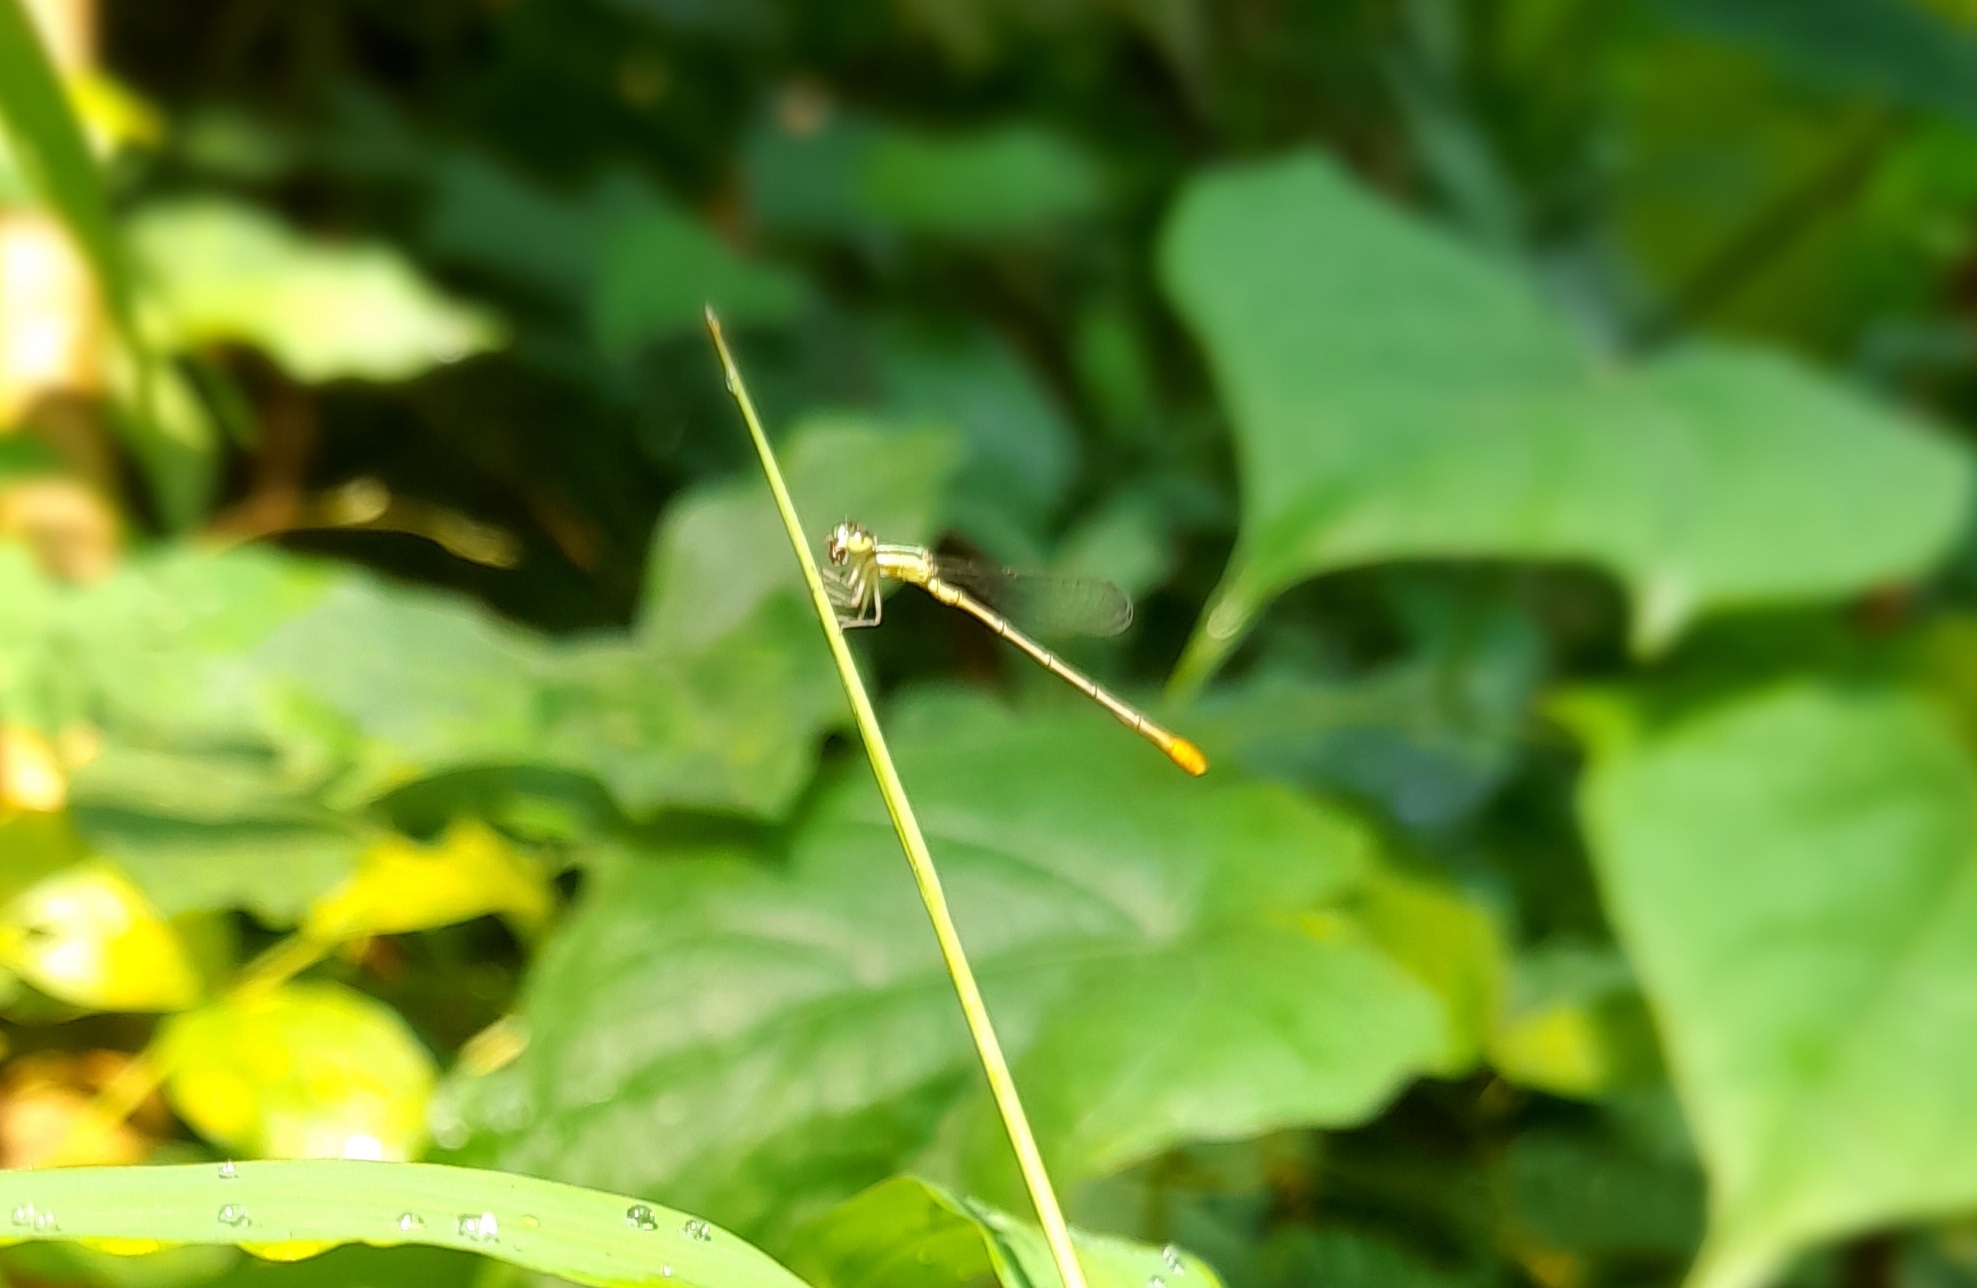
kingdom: Animalia
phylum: Arthropoda
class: Insecta
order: Odonata
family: Coenagrionidae
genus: Agriocnemis
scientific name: Agriocnemis pygmaea
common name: Pygmy wisp
